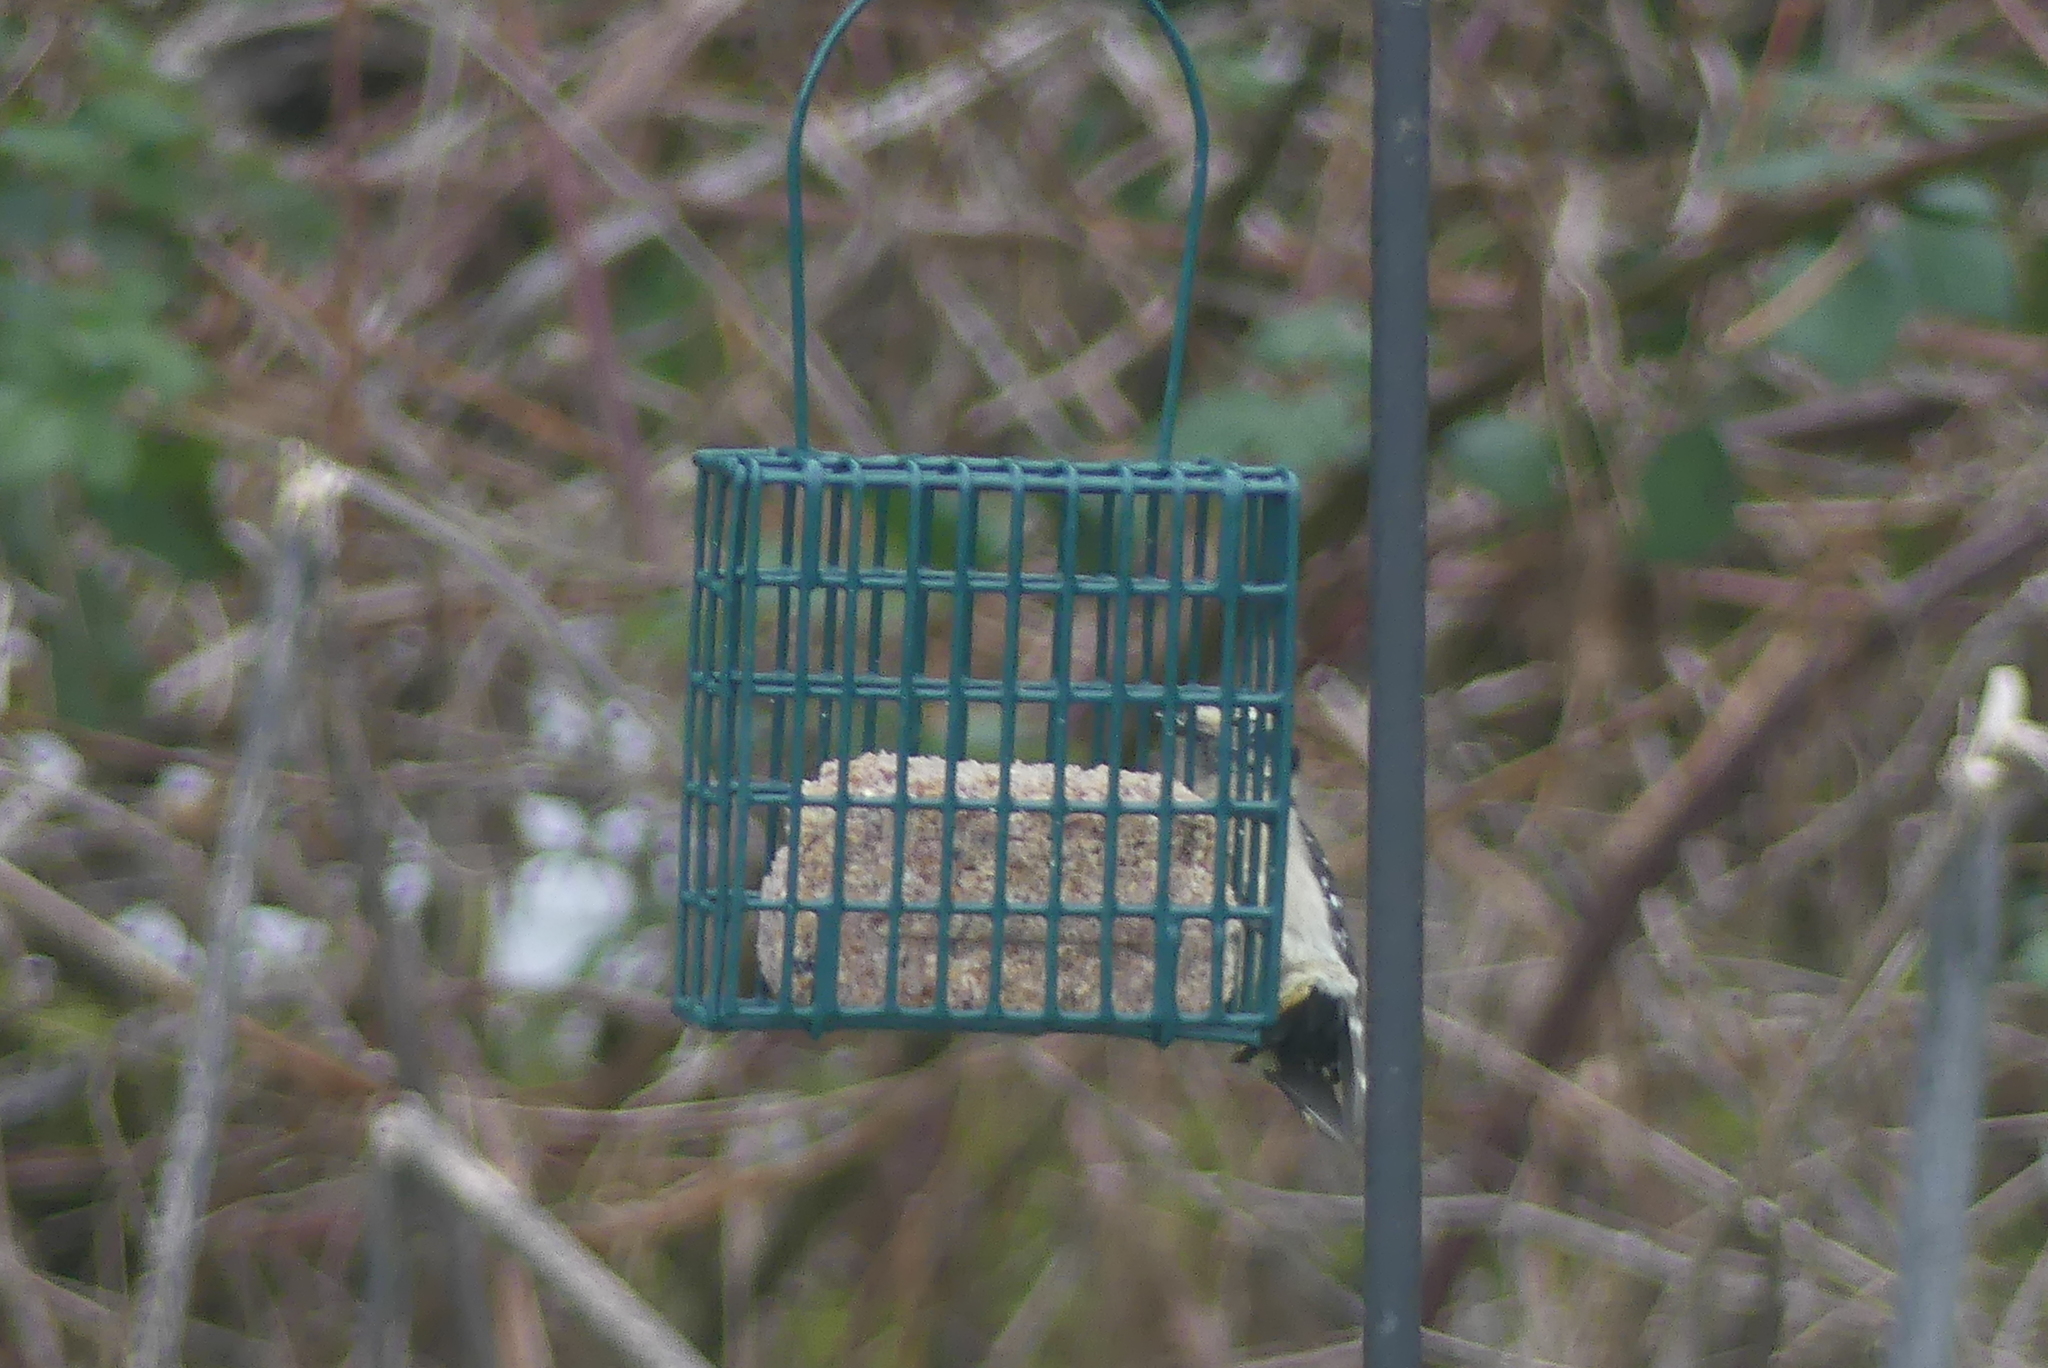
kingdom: Animalia
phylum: Chordata
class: Aves
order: Piciformes
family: Picidae
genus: Dryobates
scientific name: Dryobates pubescens
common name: Downy woodpecker
